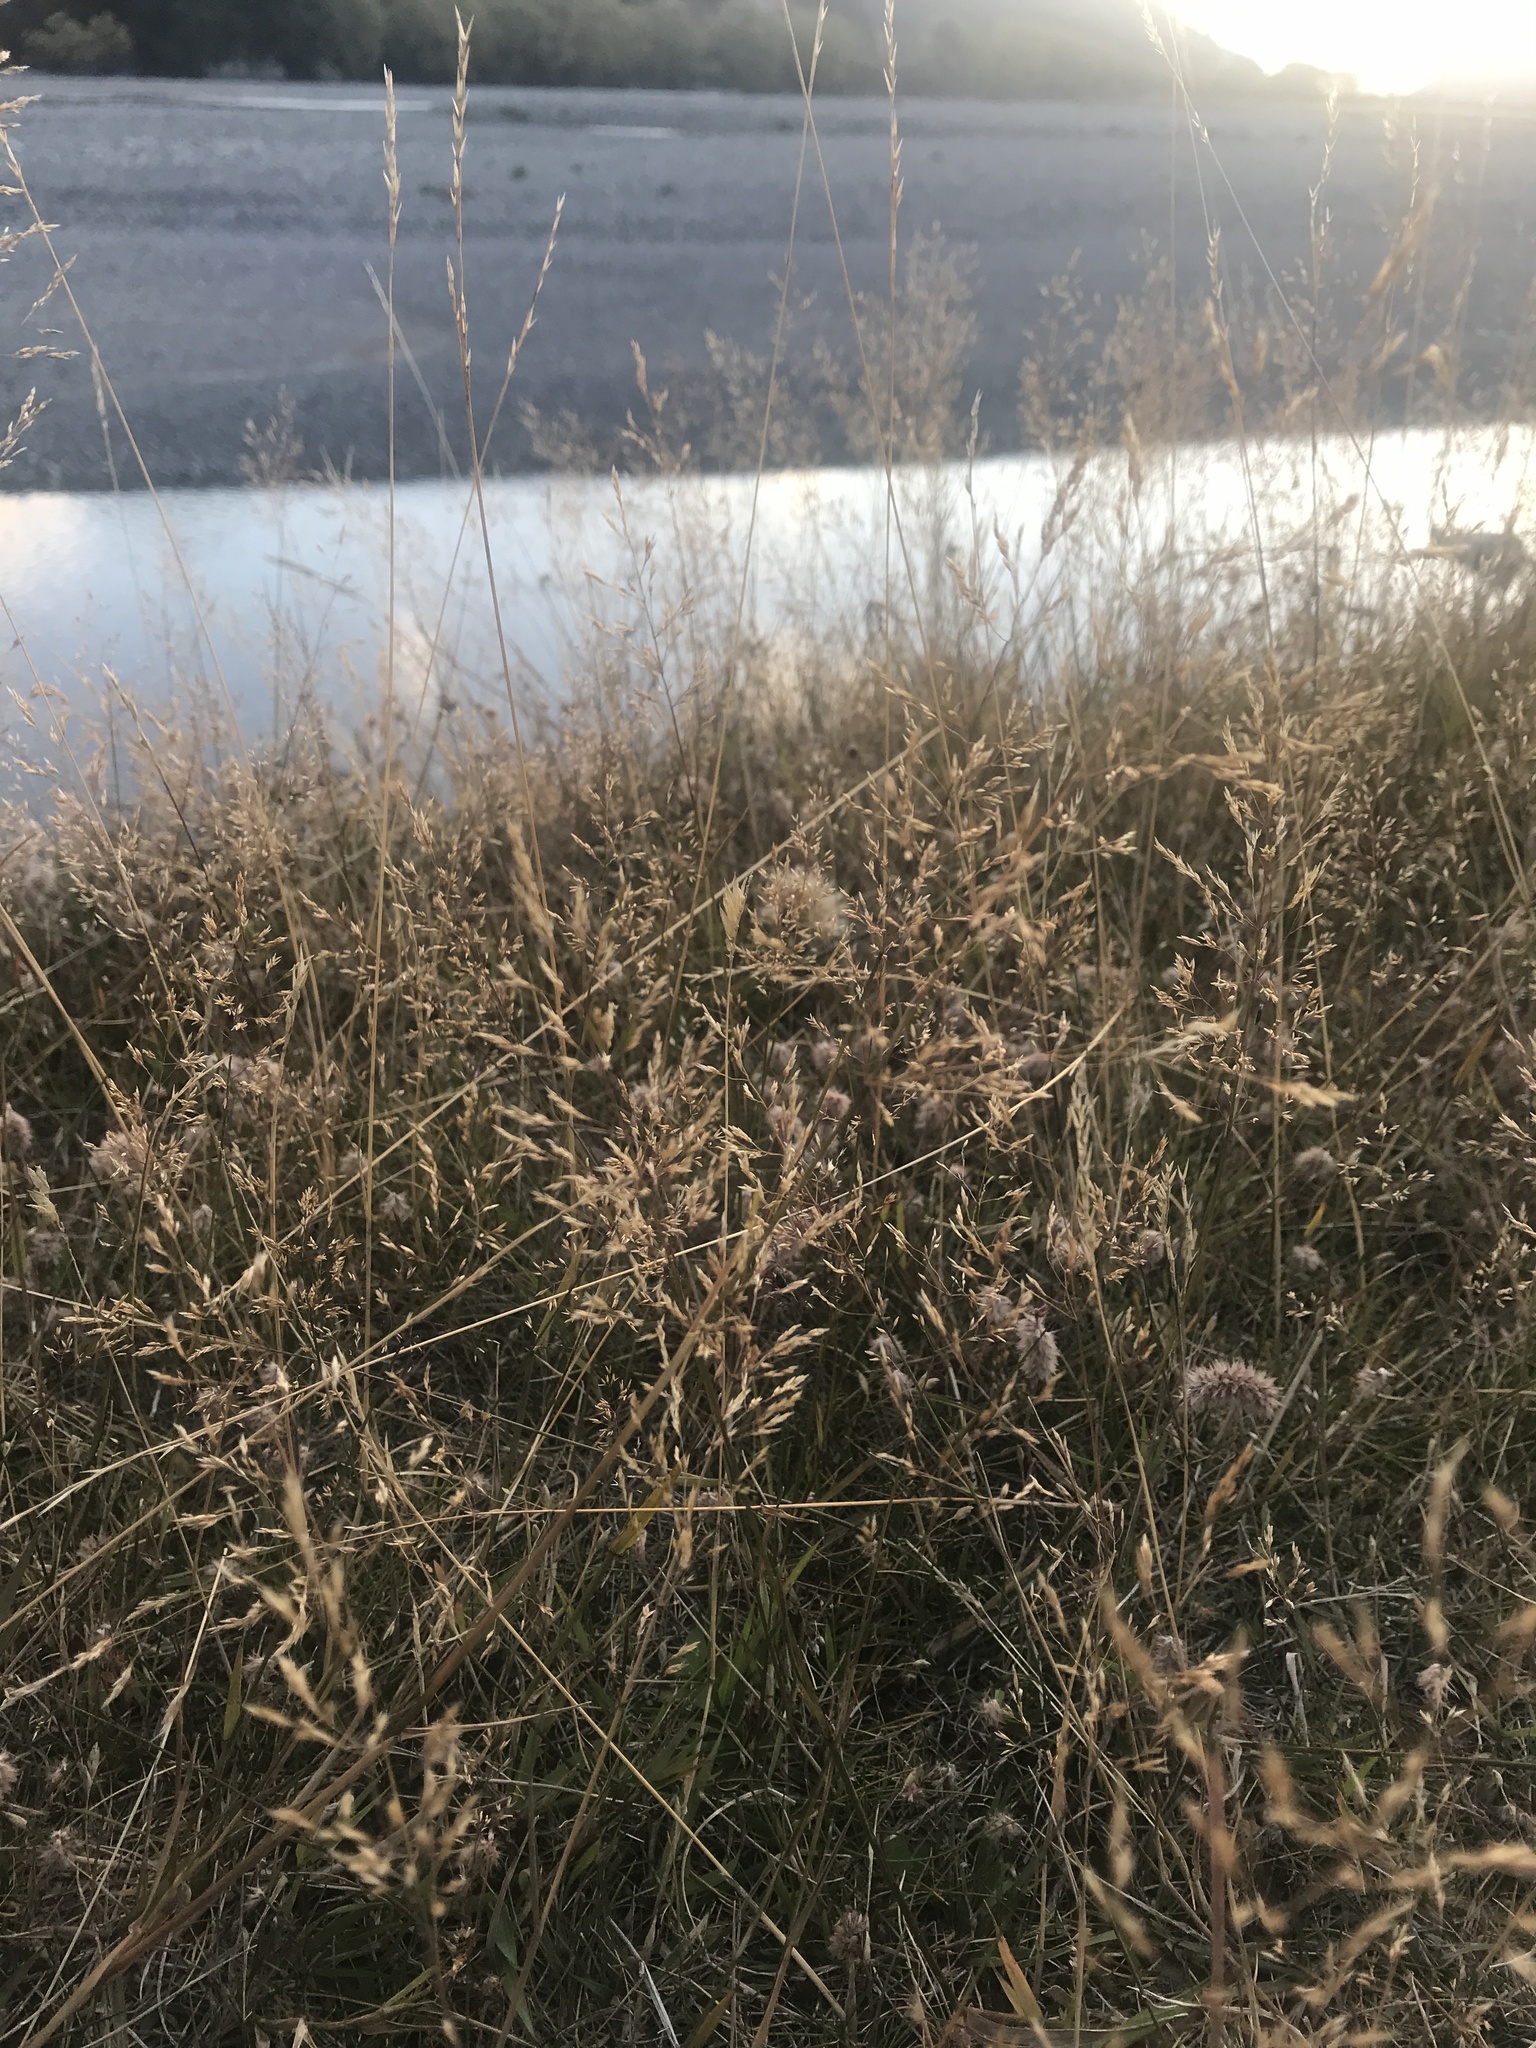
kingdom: Plantae
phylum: Tracheophyta
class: Liliopsida
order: Poales
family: Poaceae
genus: Agrostis
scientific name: Agrostis capillaris
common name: Colonial bentgrass
